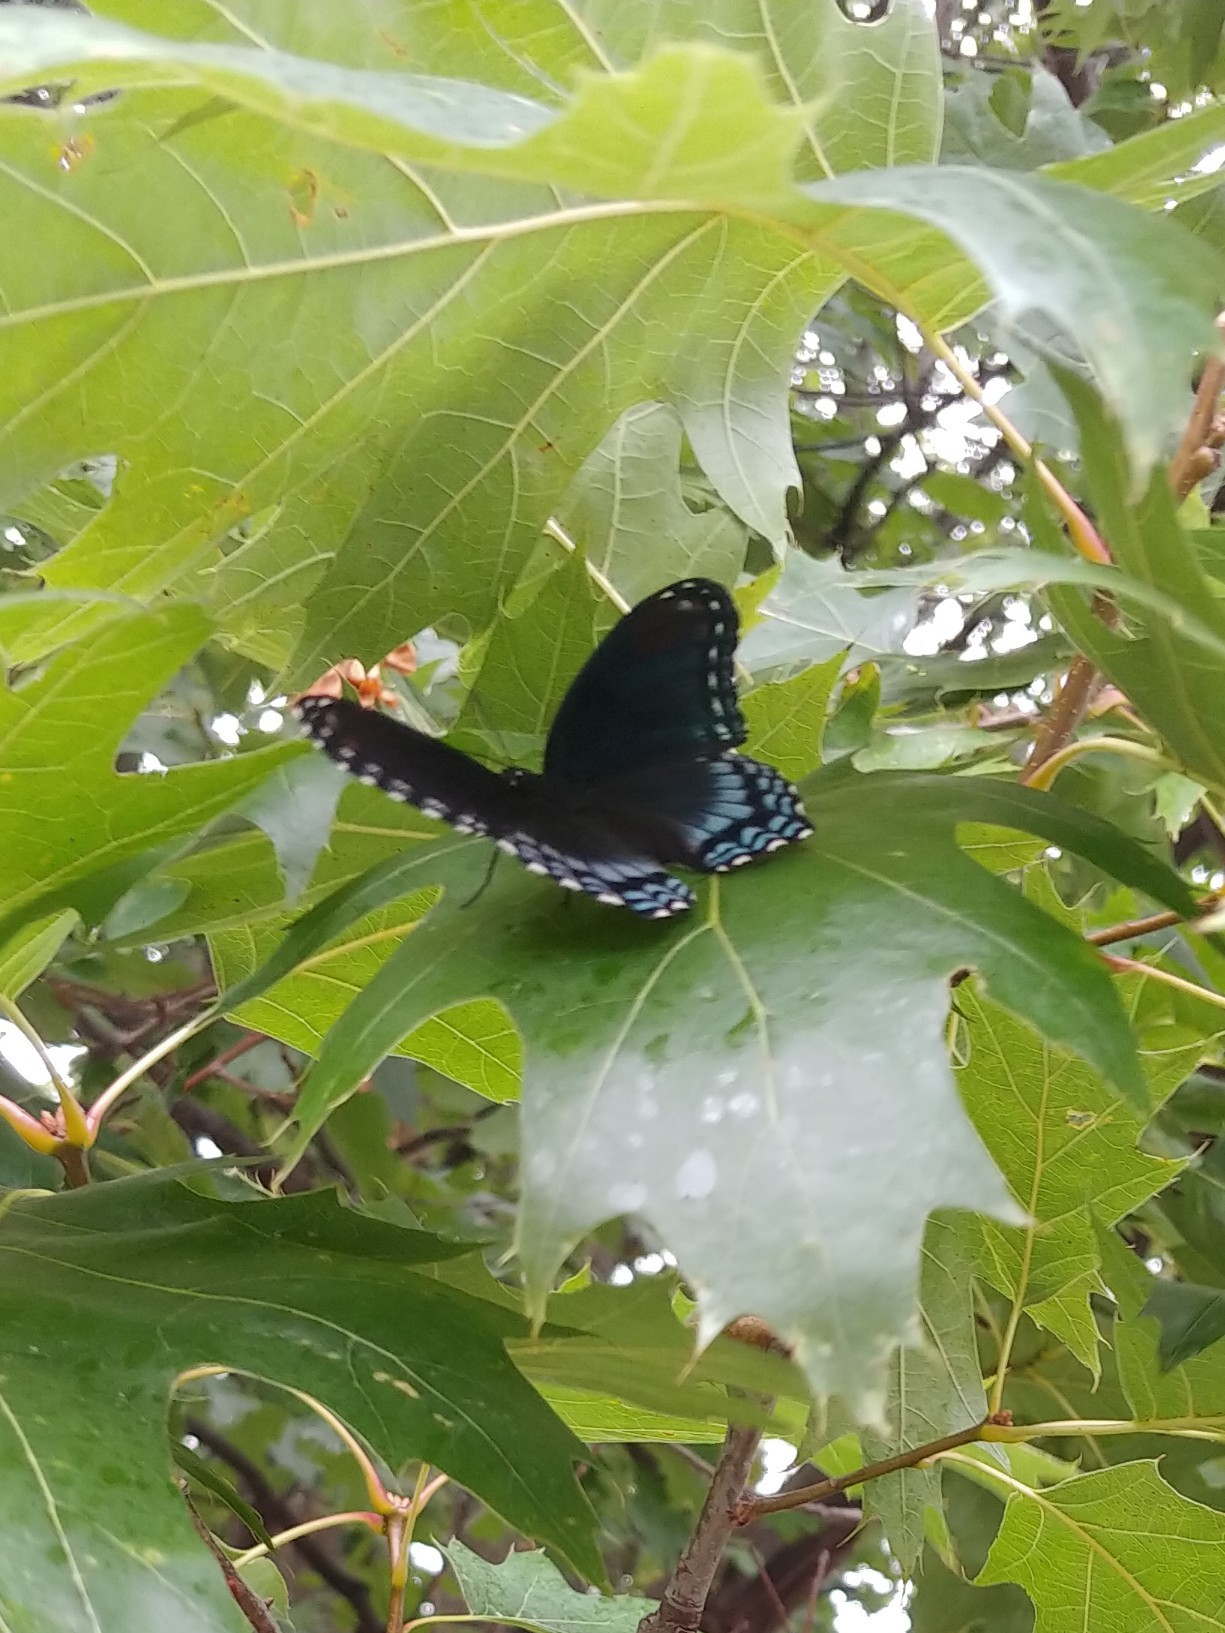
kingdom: Animalia
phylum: Arthropoda
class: Insecta
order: Lepidoptera
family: Nymphalidae
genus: Limenitis
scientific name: Limenitis astyanax
